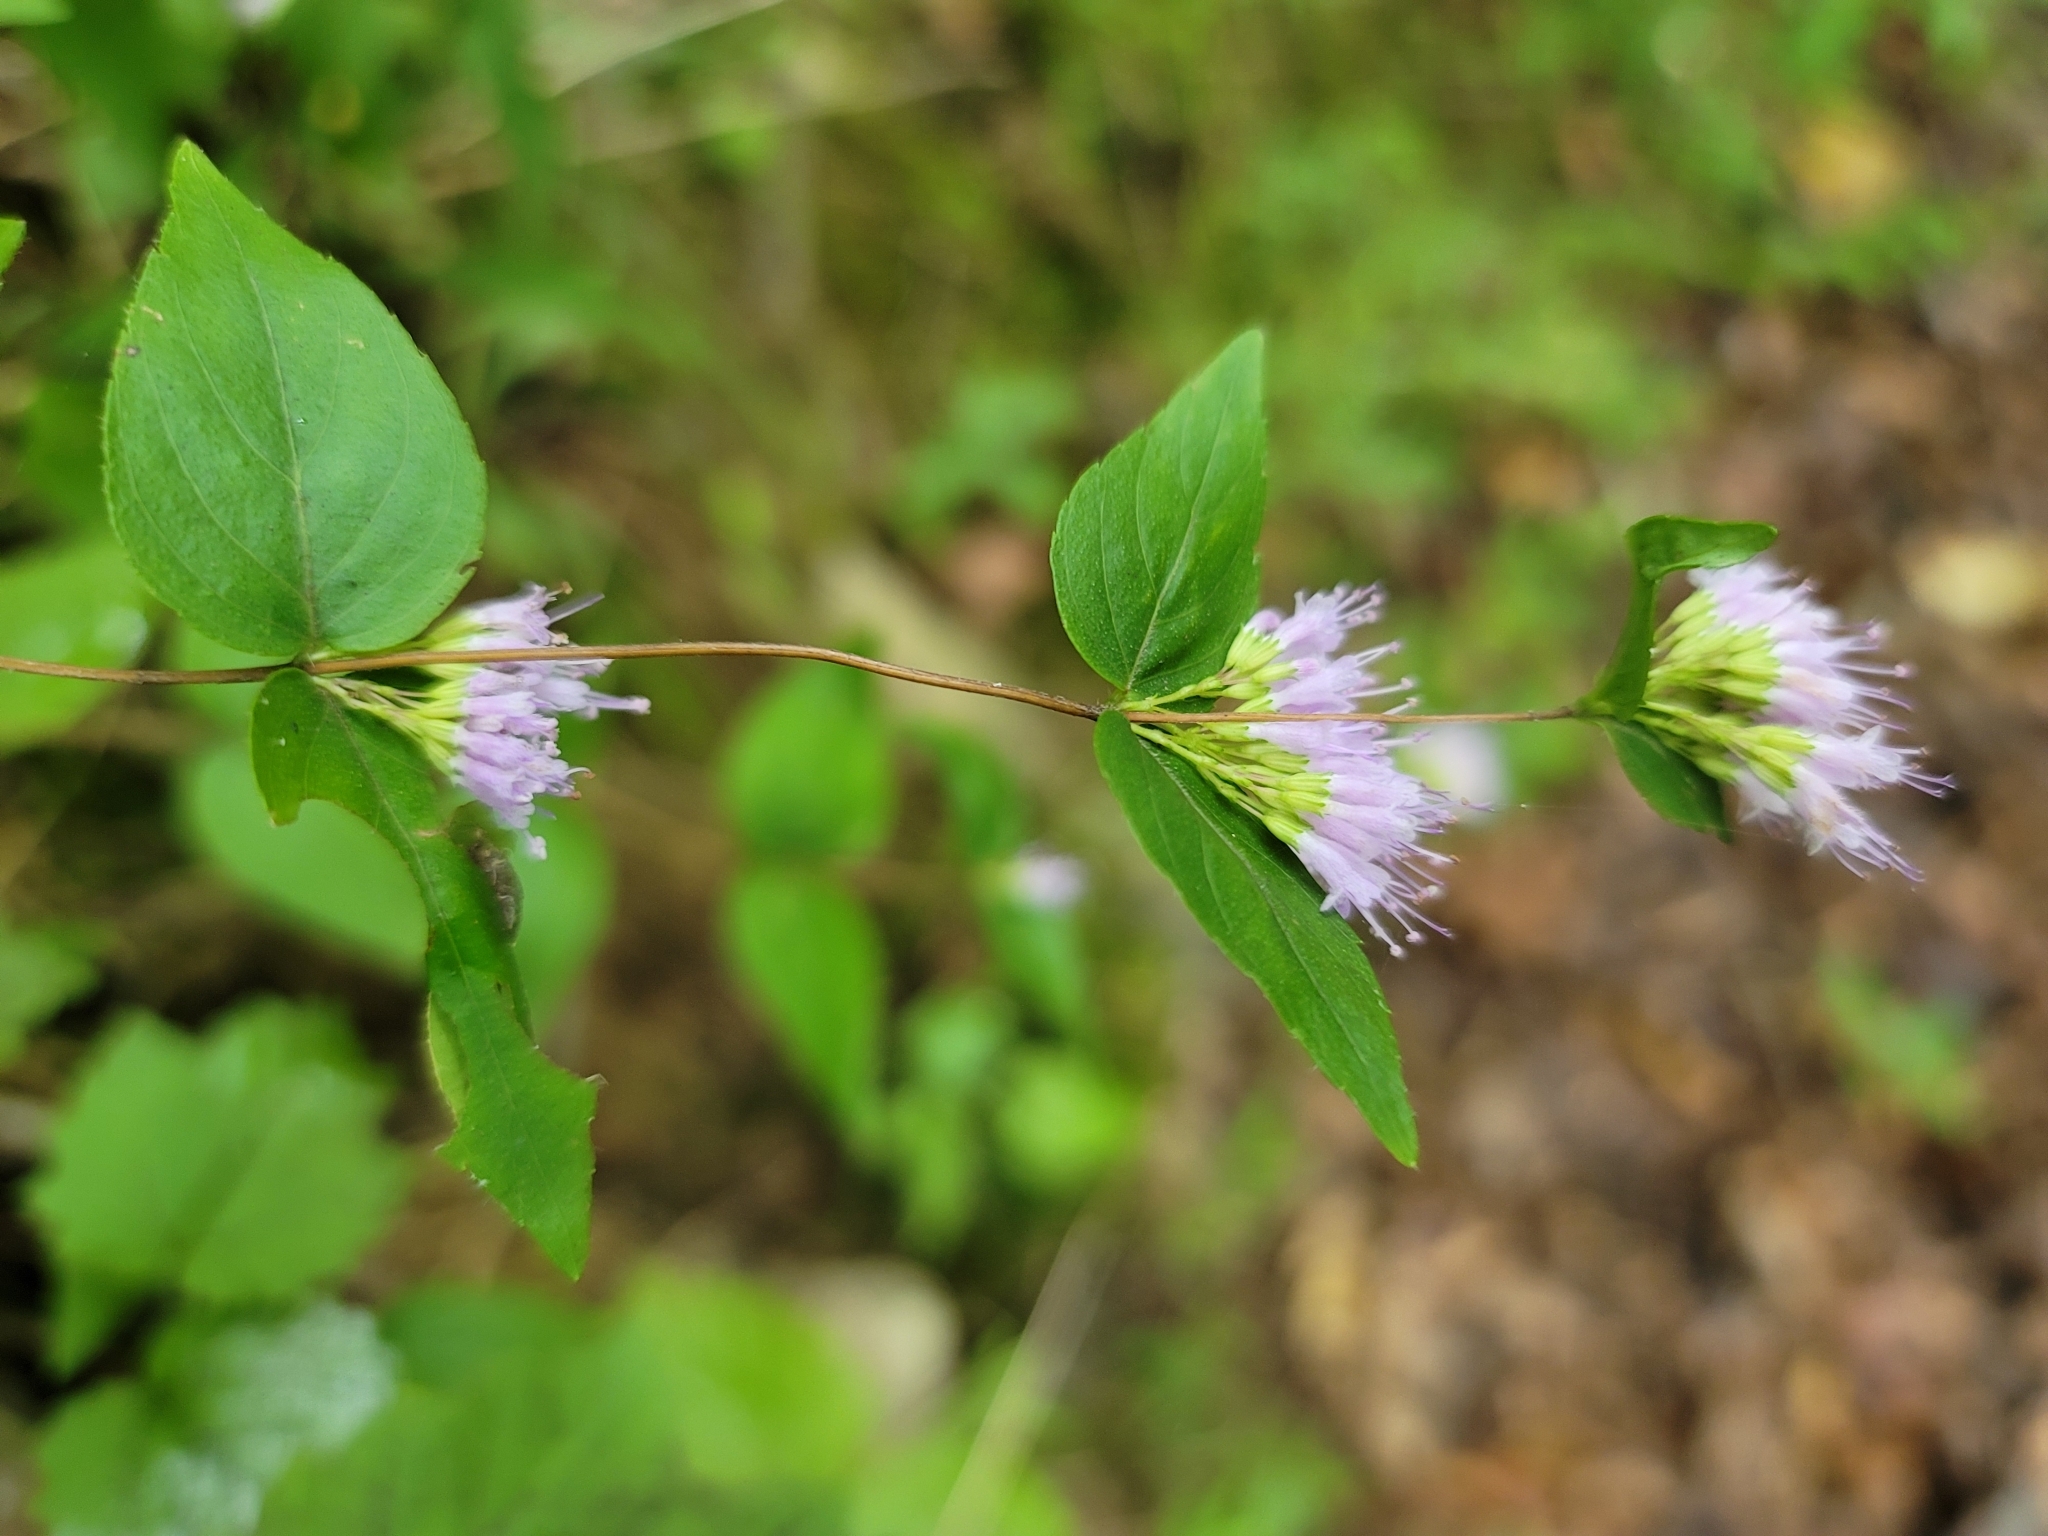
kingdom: Plantae
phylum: Tracheophyta
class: Magnoliopsida
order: Lamiales
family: Lamiaceae
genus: Cunila
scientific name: Cunila origanoides
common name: American dittany
